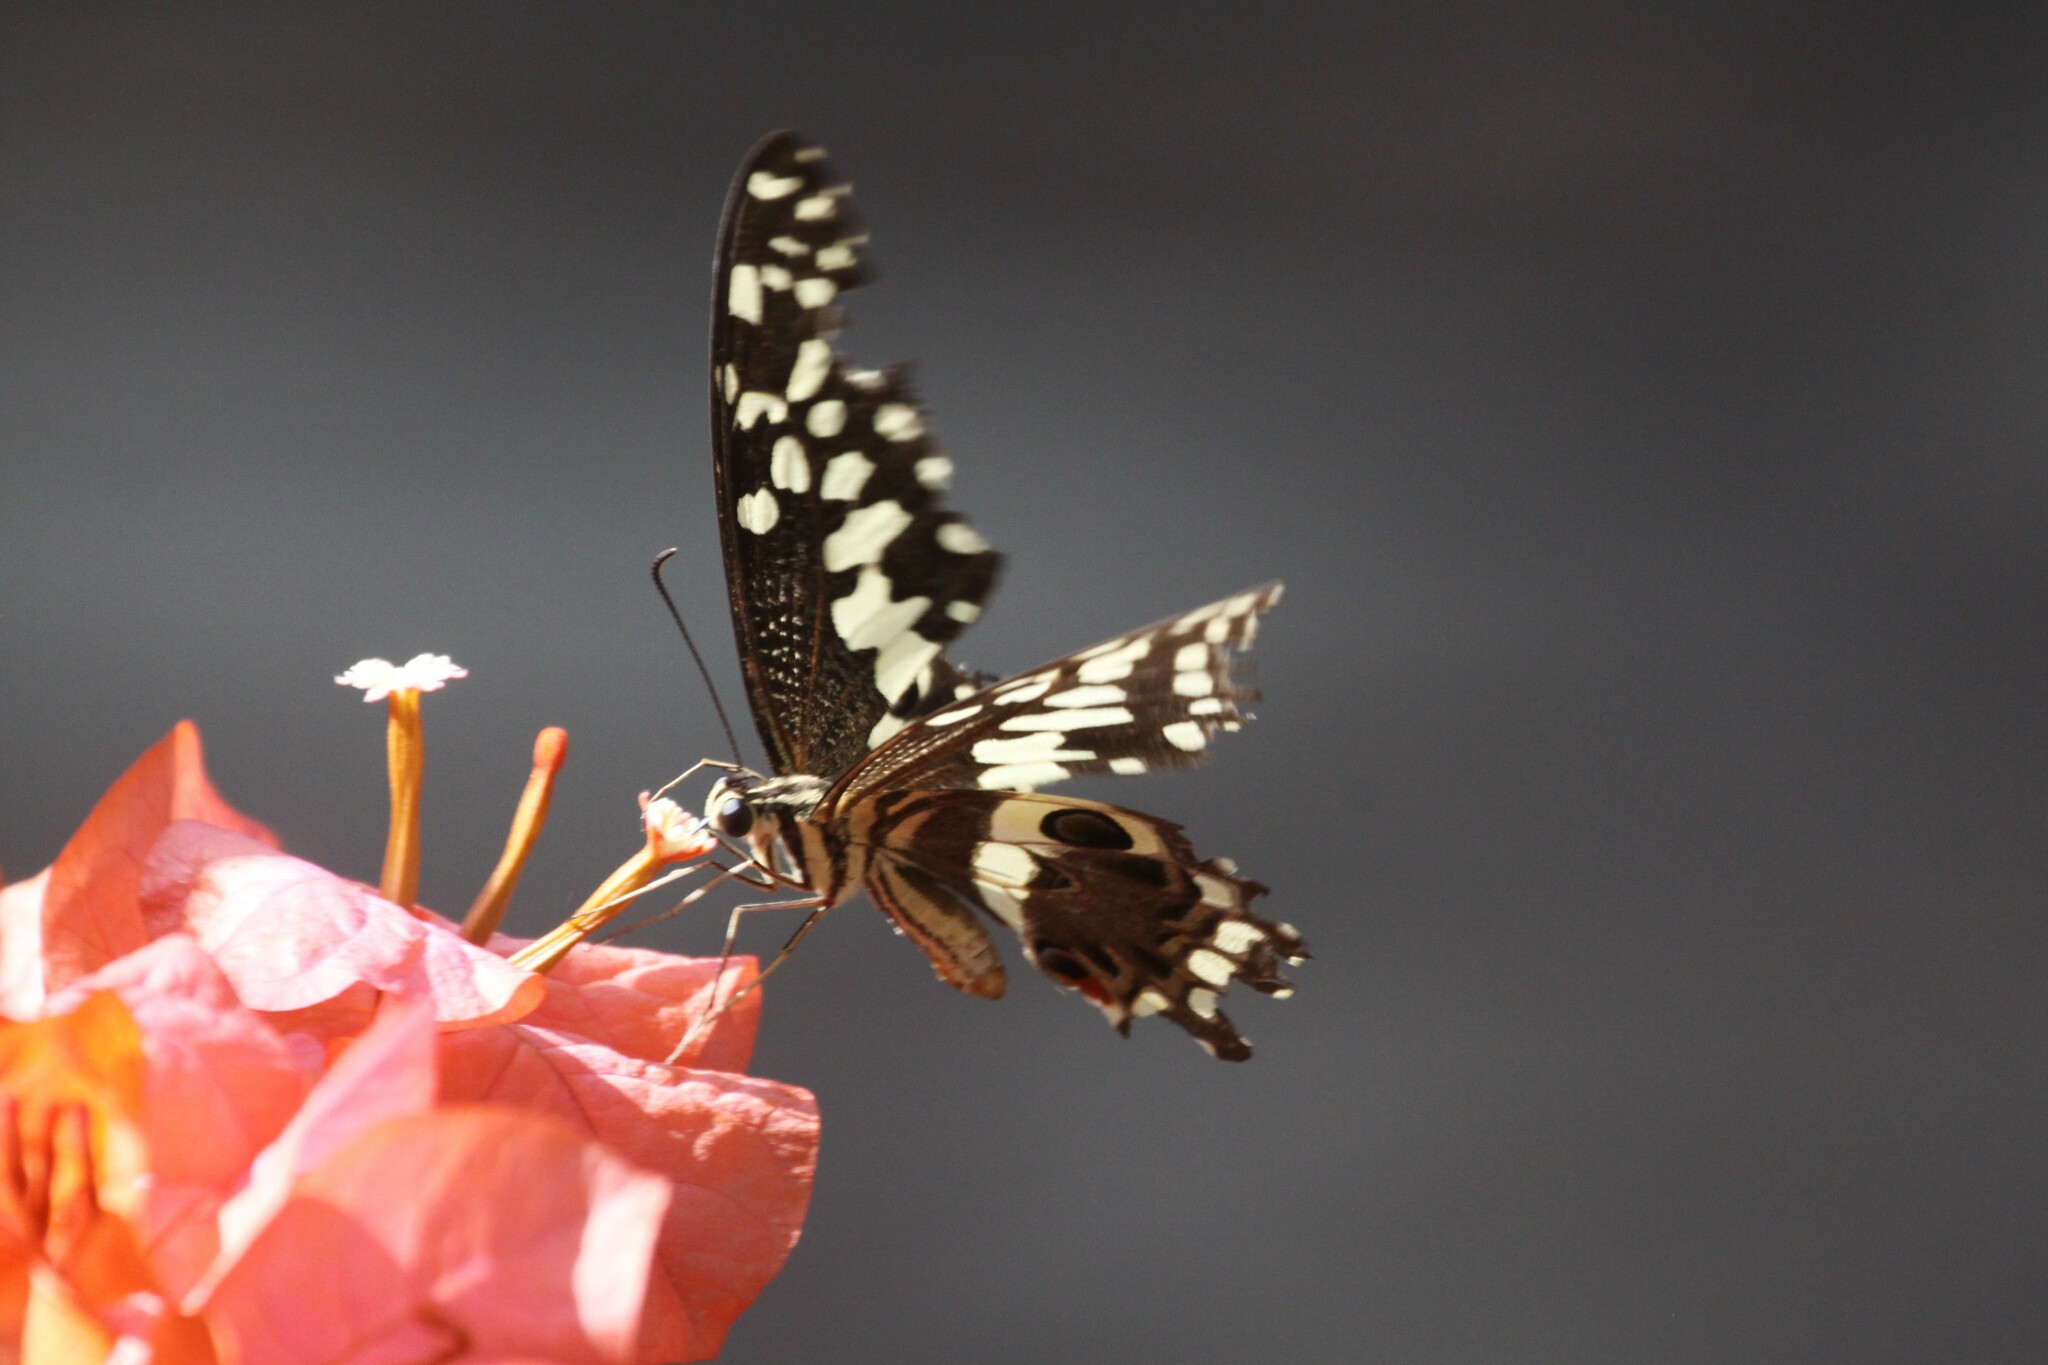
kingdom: Animalia
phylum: Arthropoda
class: Insecta
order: Lepidoptera
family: Papilionidae
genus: Papilio
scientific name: Papilio demodocus
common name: Christmas butterfly
